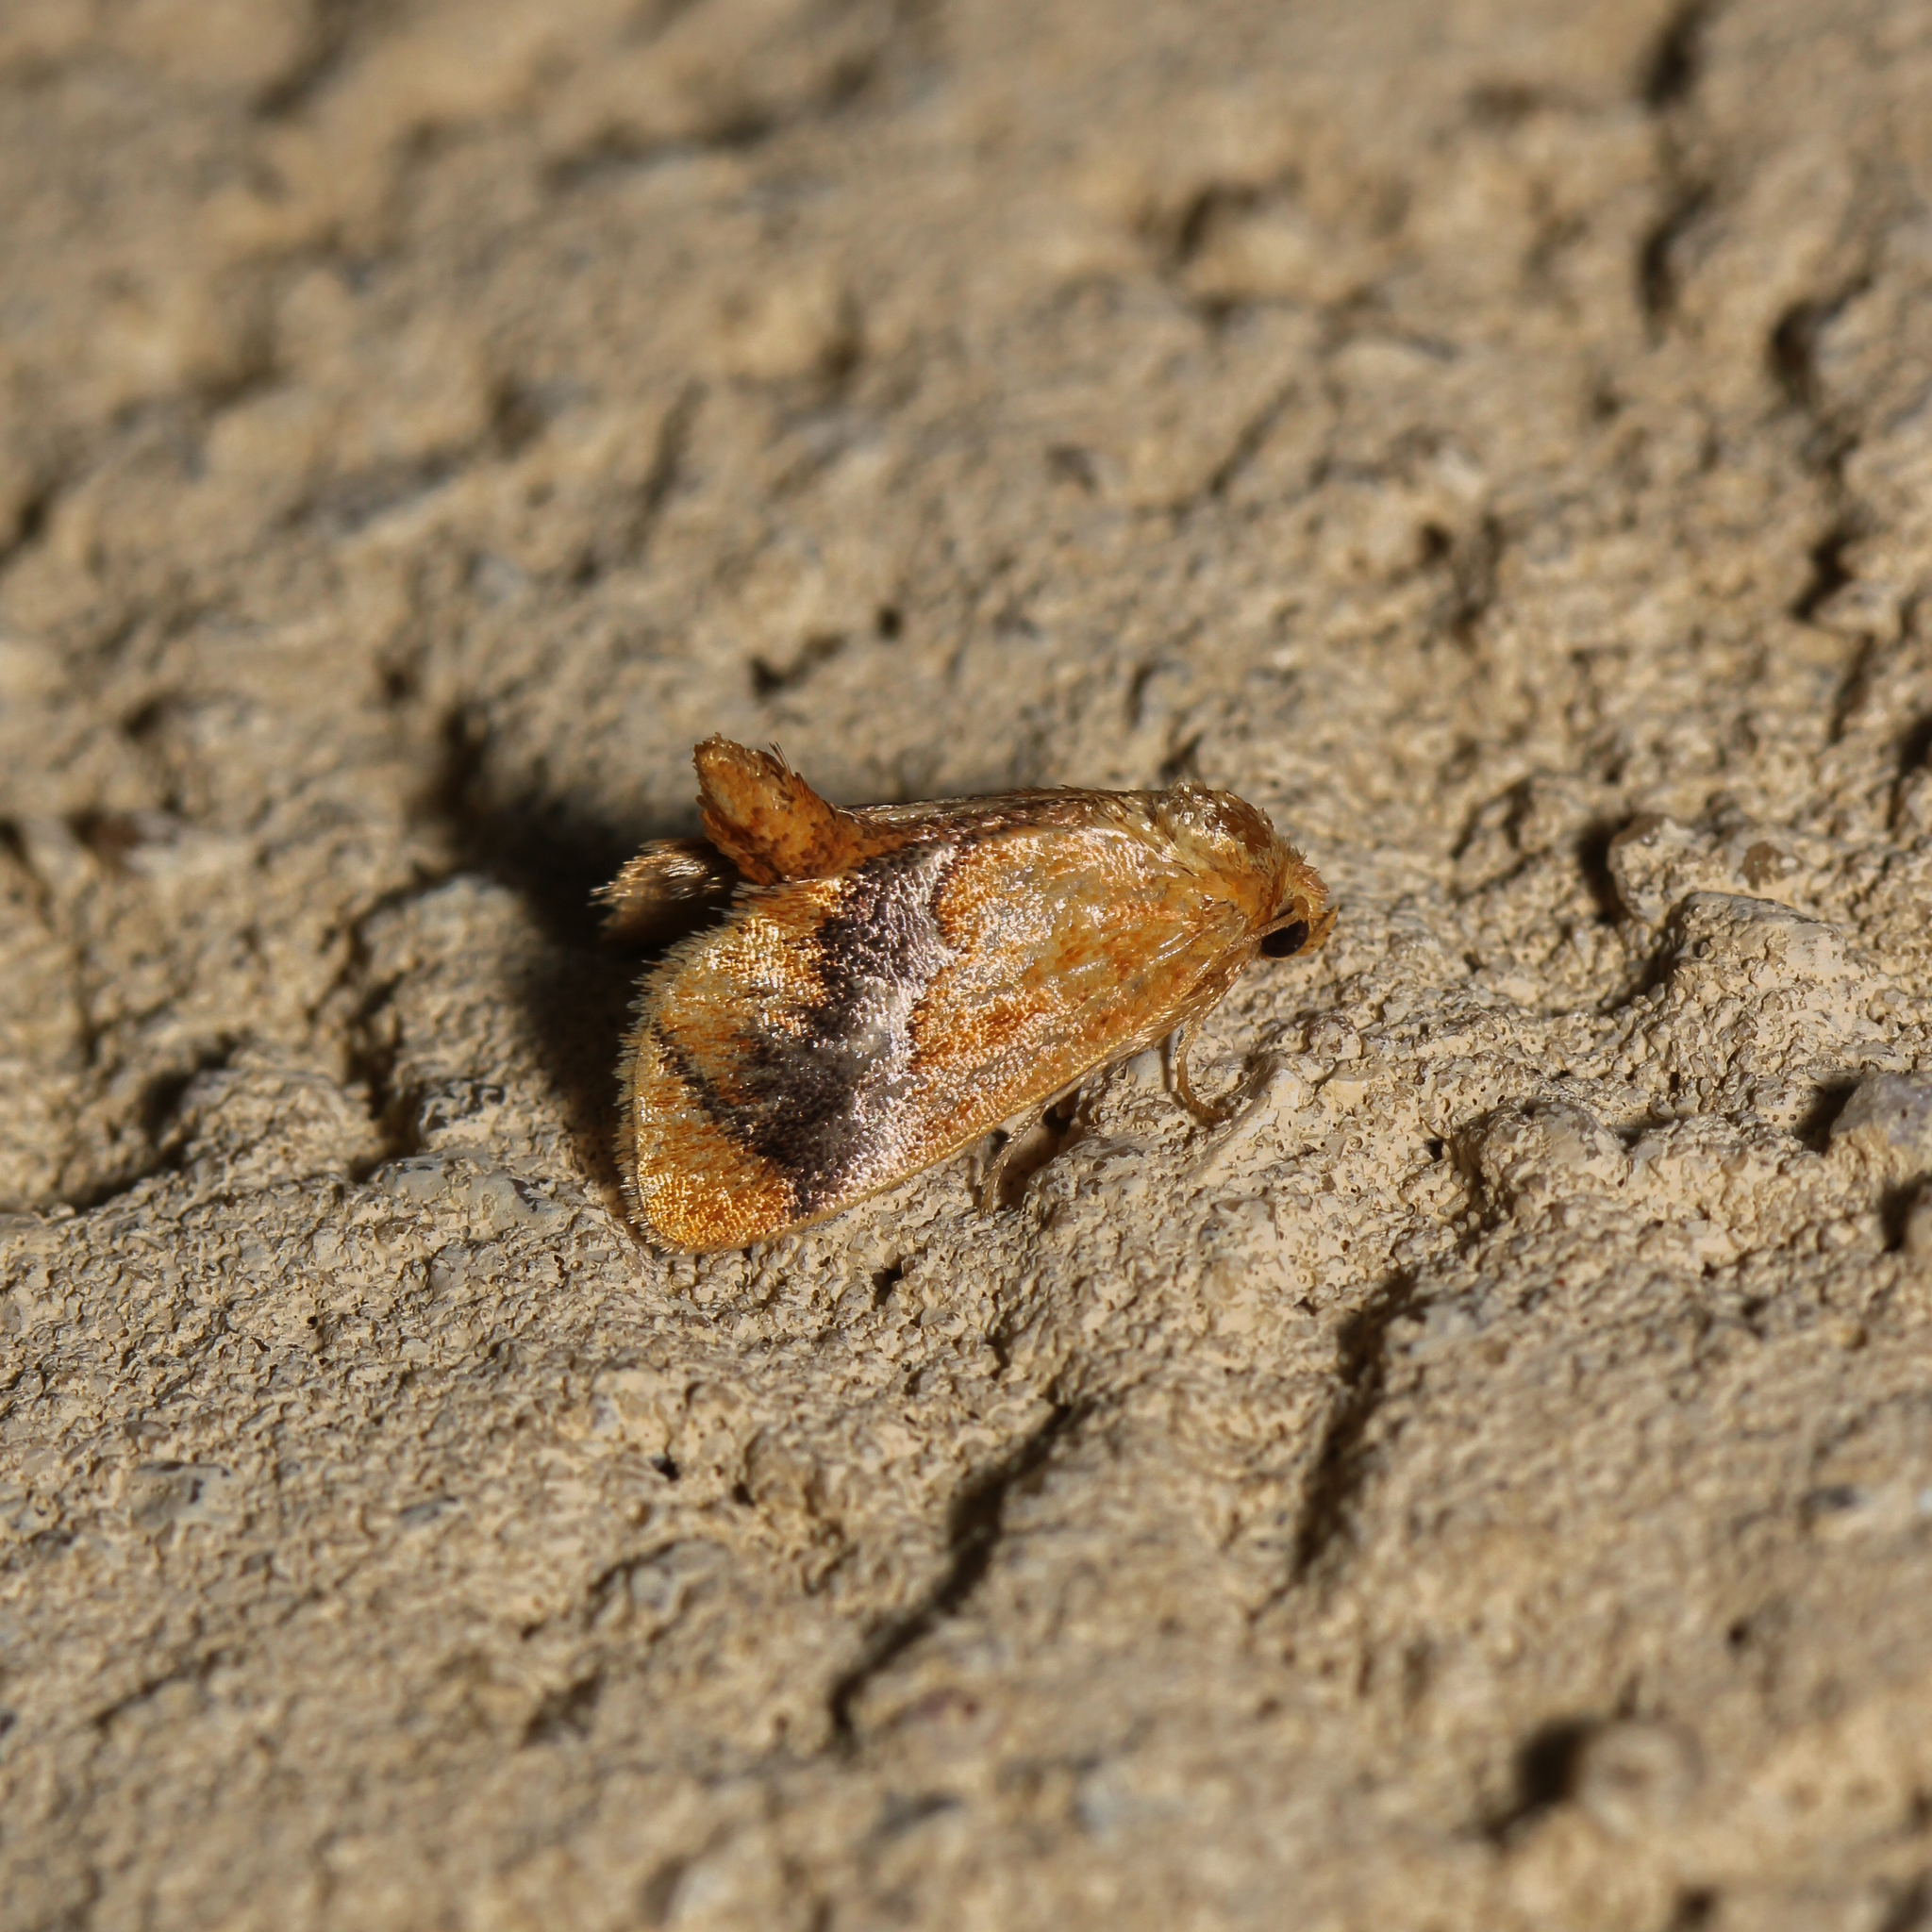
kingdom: Animalia
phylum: Arthropoda
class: Insecta
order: Lepidoptera
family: Limacodidae
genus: Lithacodes
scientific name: Lithacodes fasciola
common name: Yellow-shouldered slug moth
